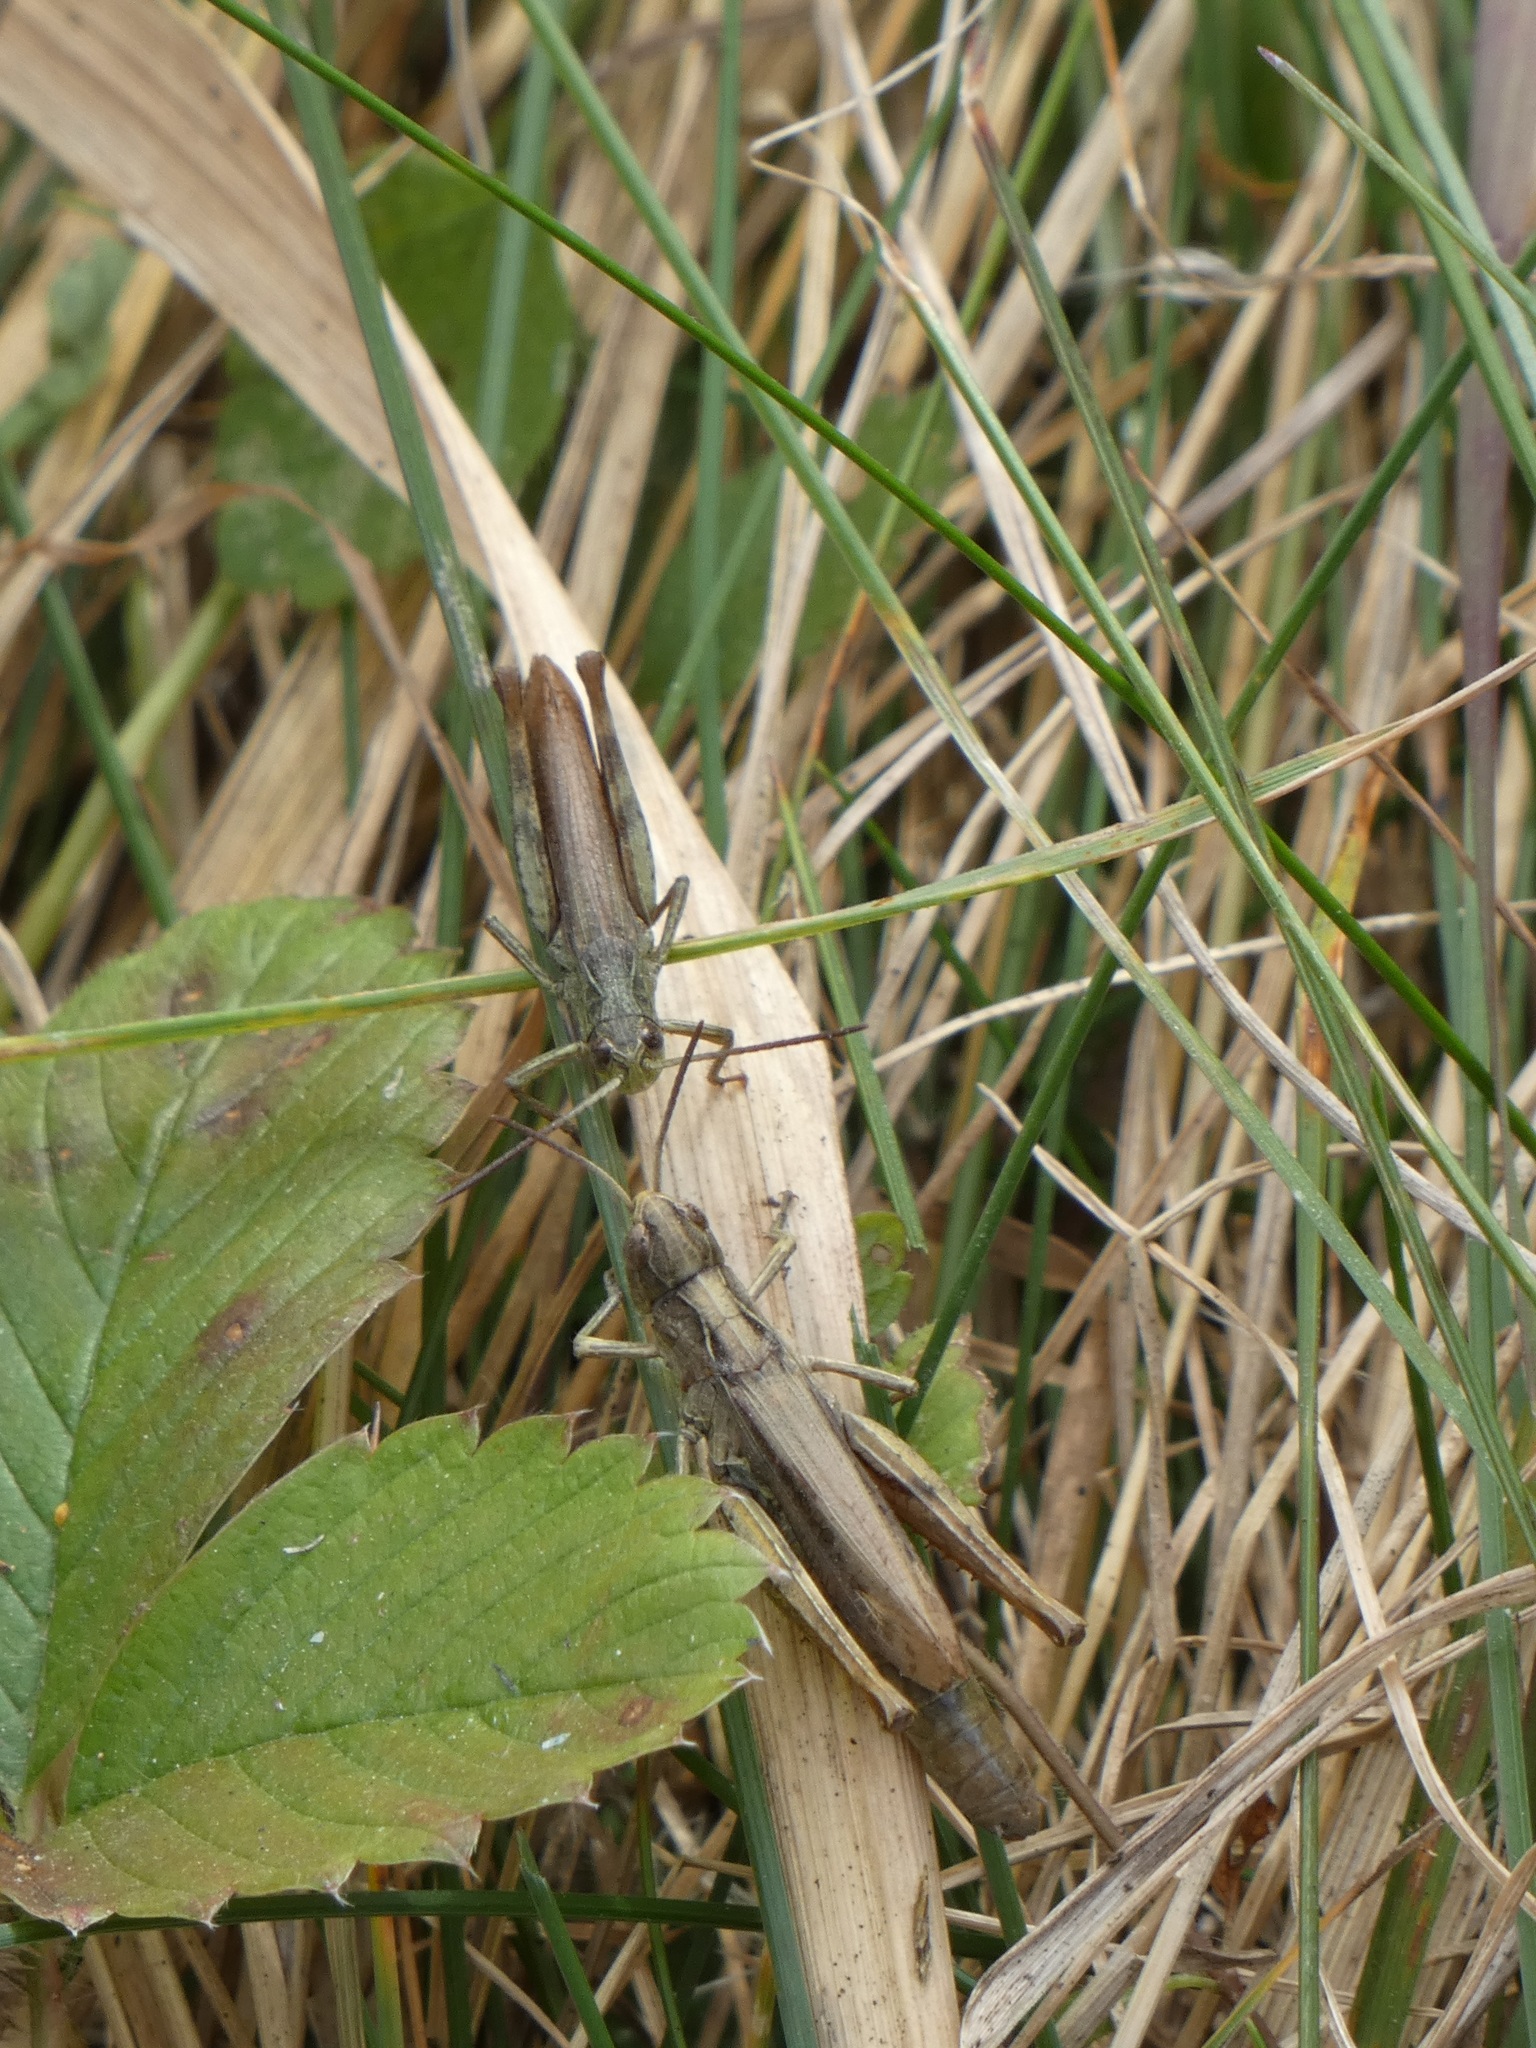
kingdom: Animalia
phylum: Arthropoda
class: Insecta
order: Orthoptera
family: Acrididae
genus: Chorthippus
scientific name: Chorthippus apricarius
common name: Upland field grasshopper
